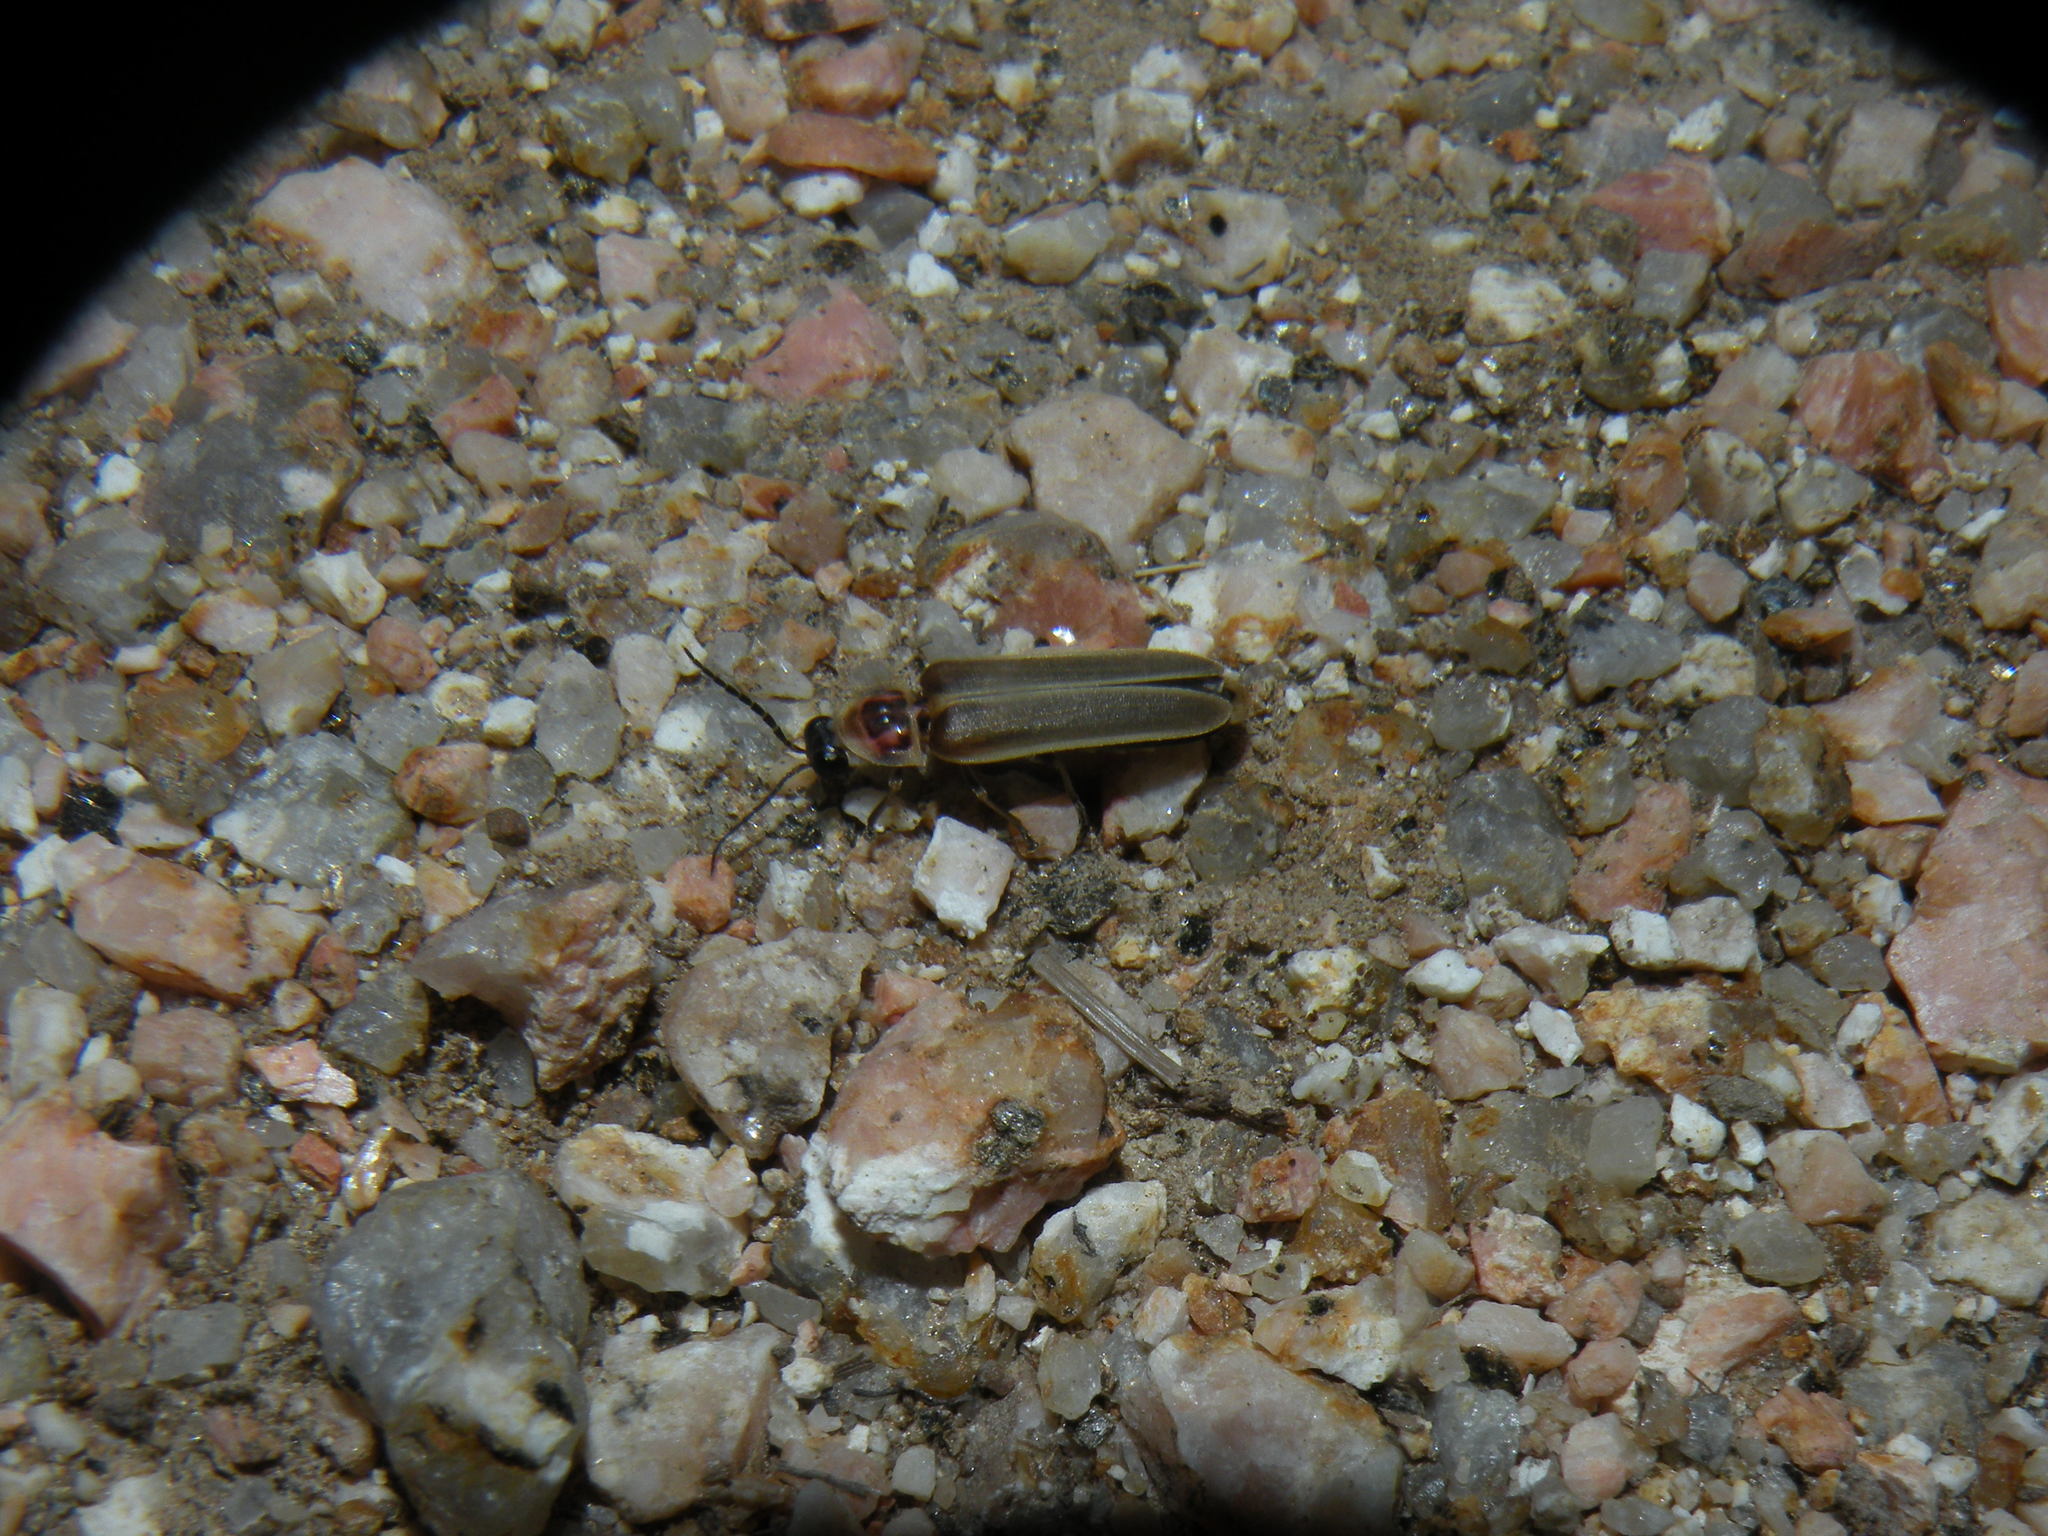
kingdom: Animalia
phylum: Arthropoda
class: Insecta
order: Coleoptera
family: Lampyridae
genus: Photinus
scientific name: Photinus signaticollis
